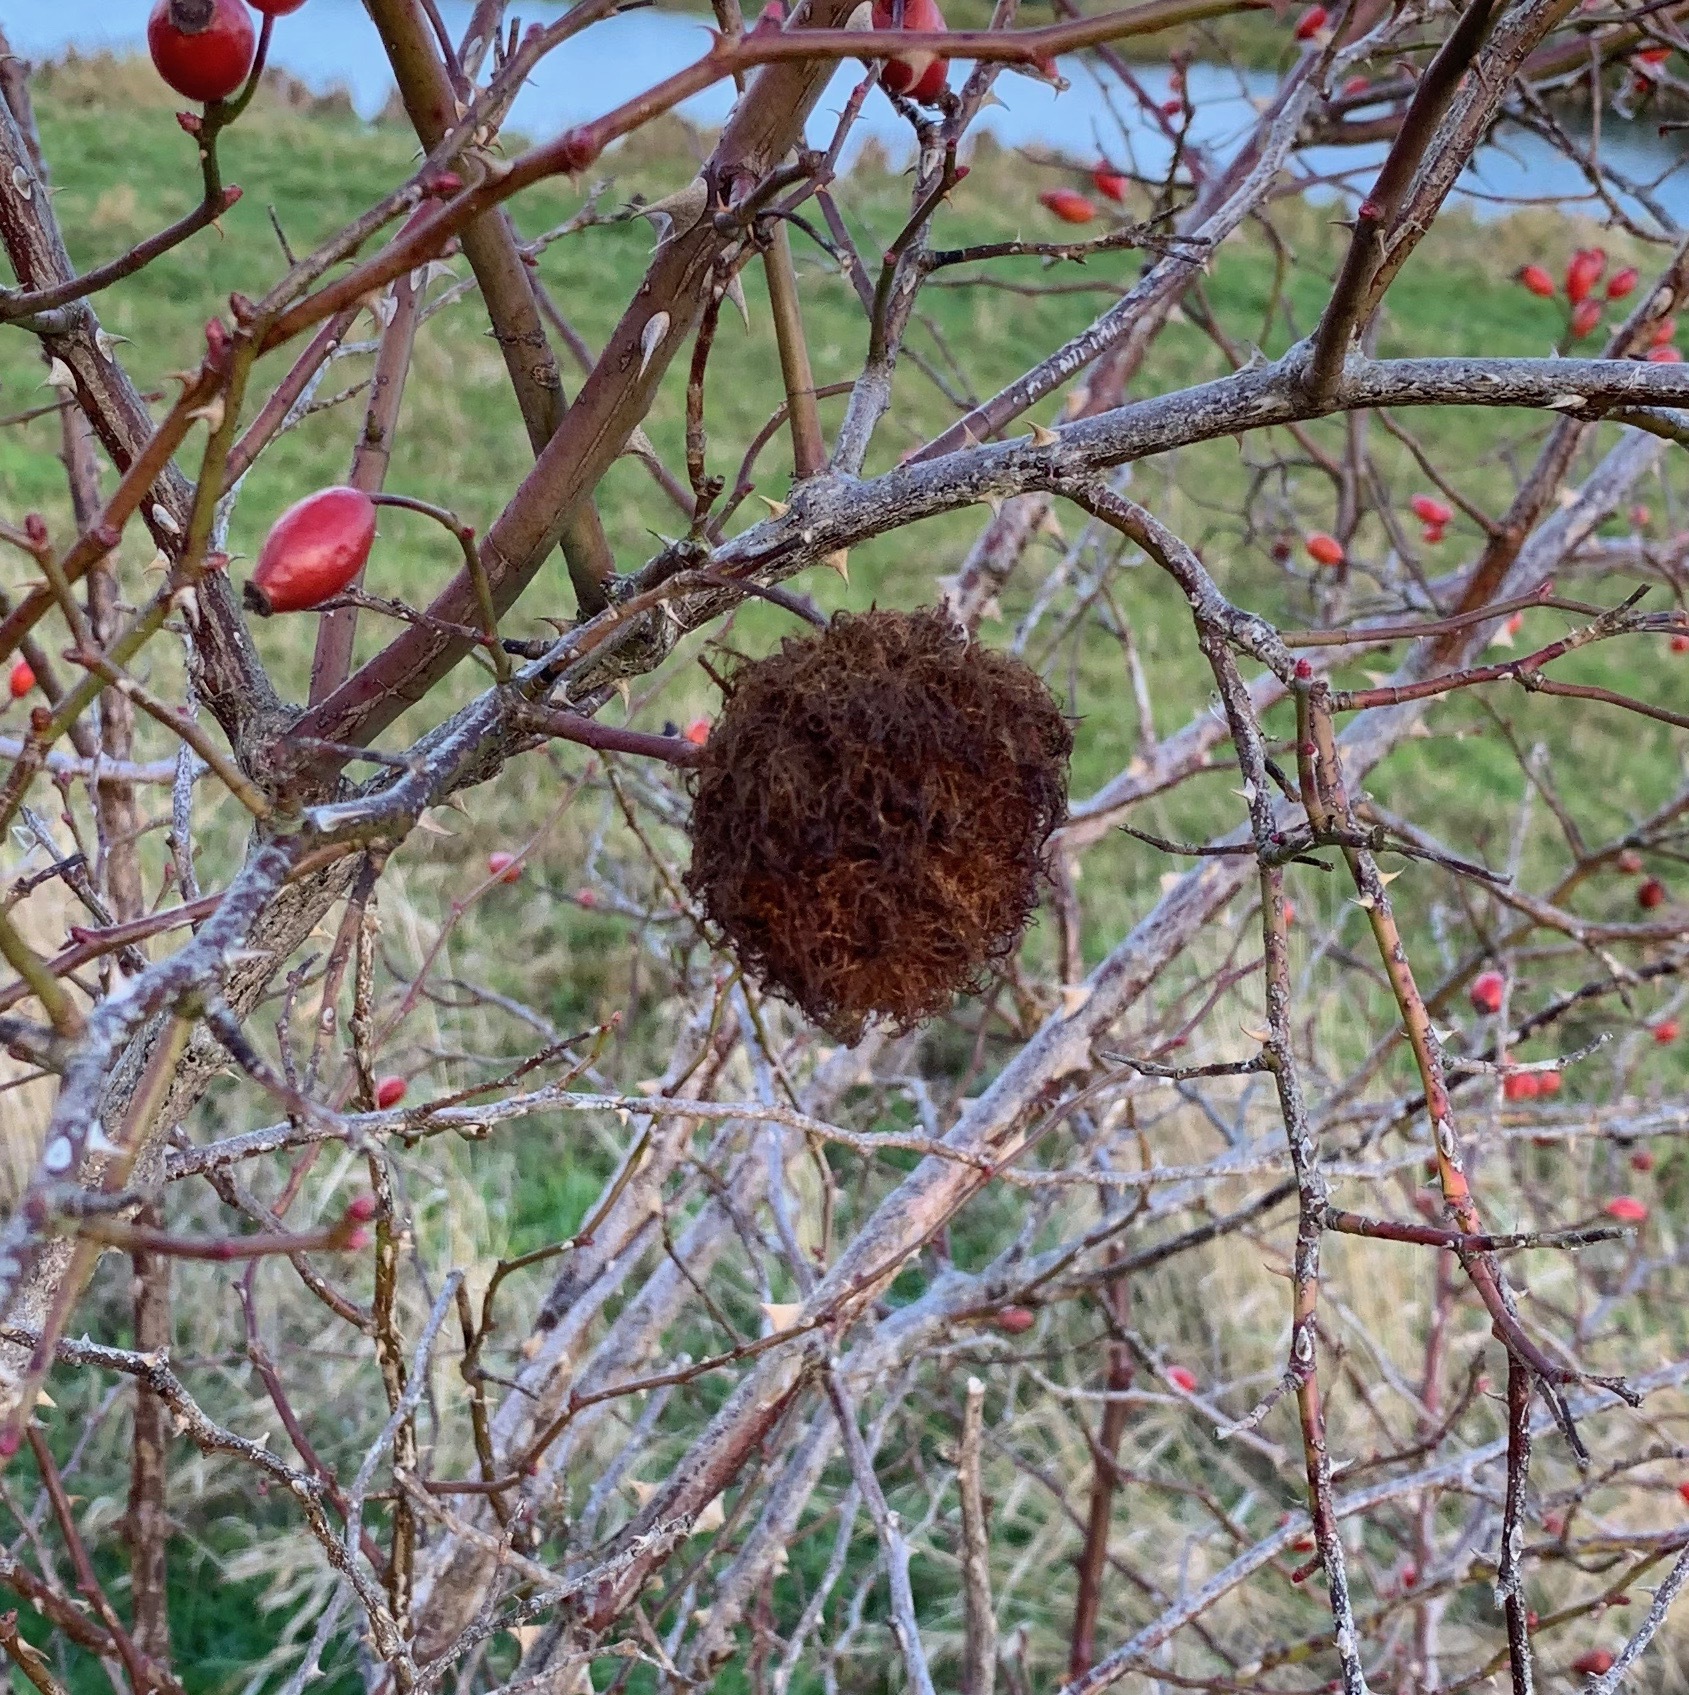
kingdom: Animalia
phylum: Arthropoda
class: Insecta
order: Hymenoptera
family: Cynipidae
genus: Diplolepis
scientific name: Diplolepis rosae
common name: Bedeguar gall
